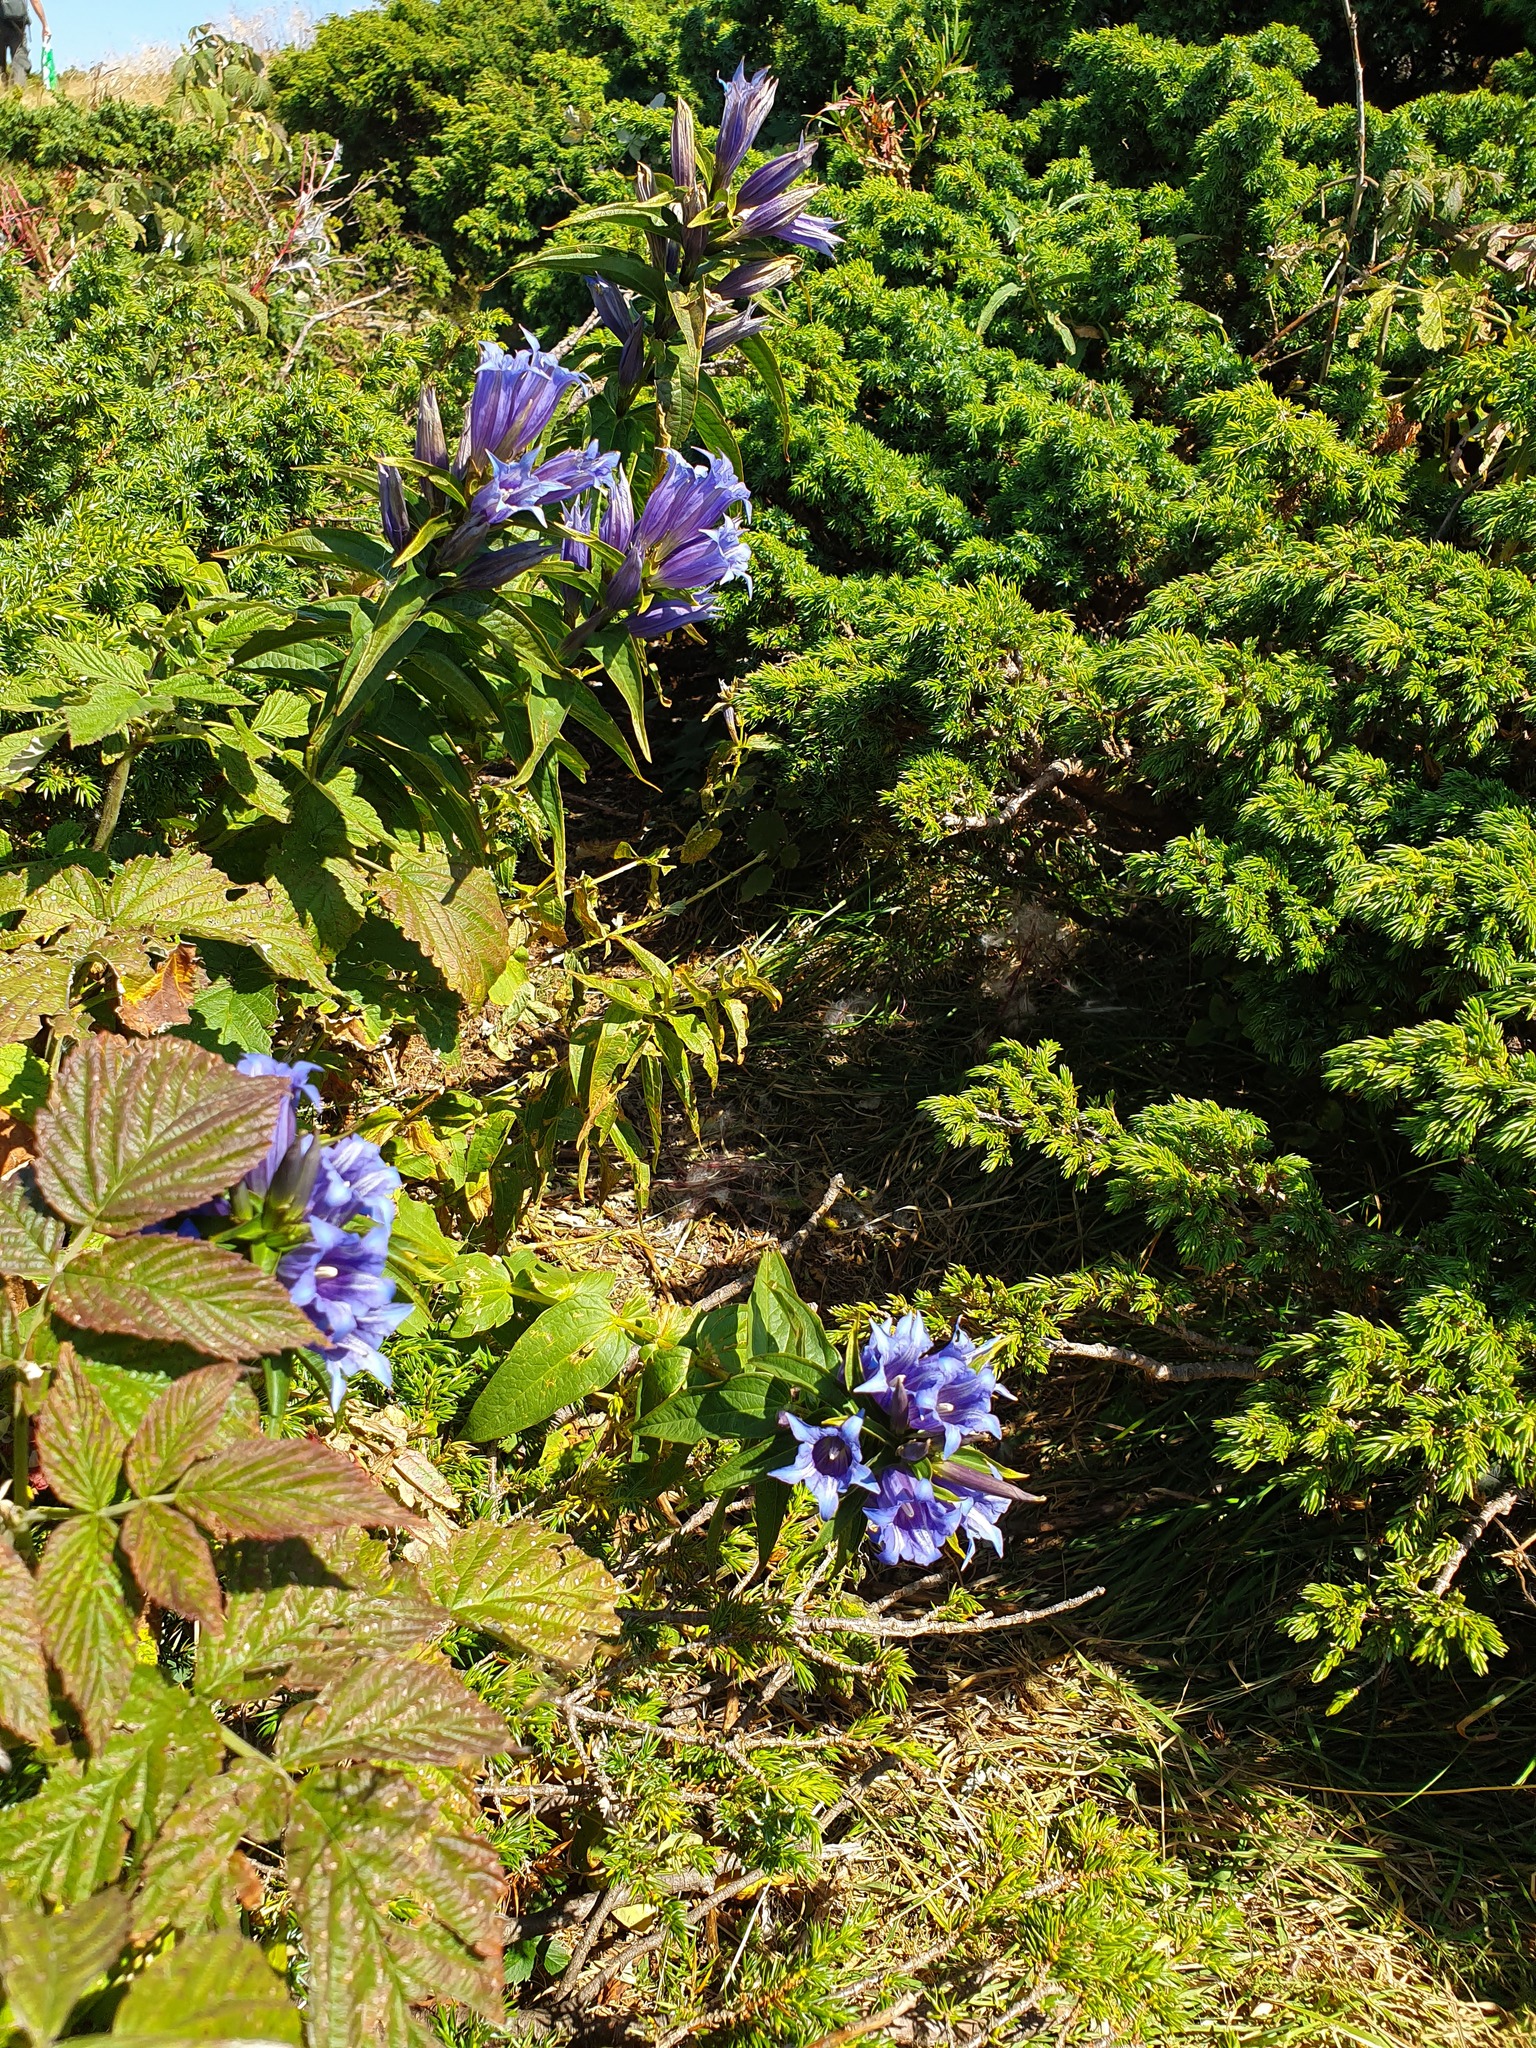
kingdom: Plantae
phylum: Tracheophyta
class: Magnoliopsida
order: Gentianales
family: Gentianaceae
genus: Gentiana
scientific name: Gentiana asclepiadea
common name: Willow gentian
